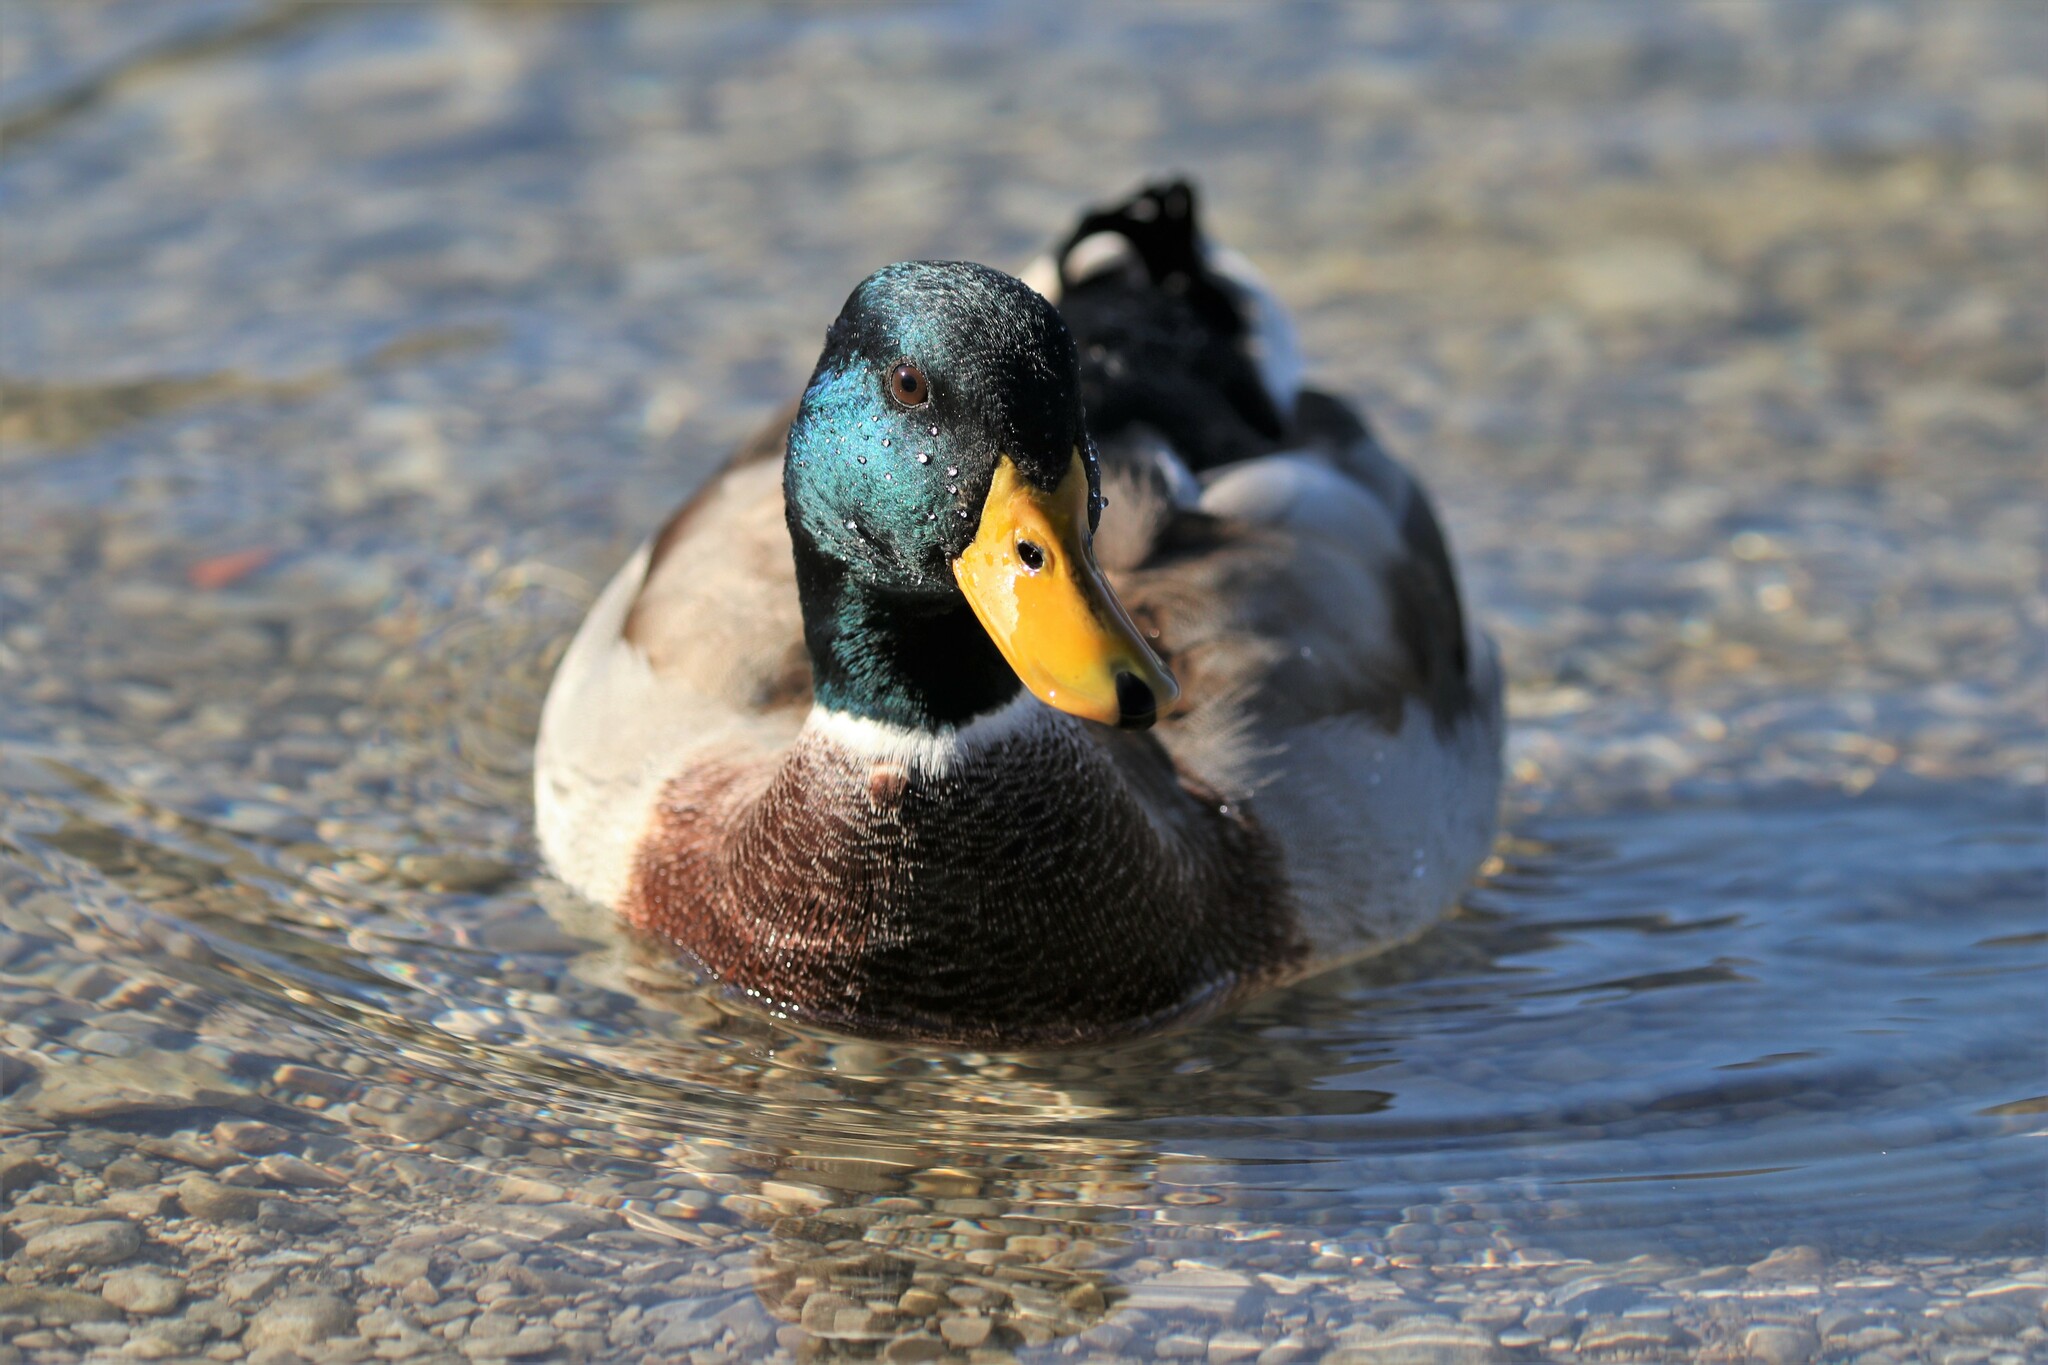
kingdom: Animalia
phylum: Chordata
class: Aves
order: Anseriformes
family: Anatidae
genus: Anas
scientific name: Anas platyrhynchos
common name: Mallard
